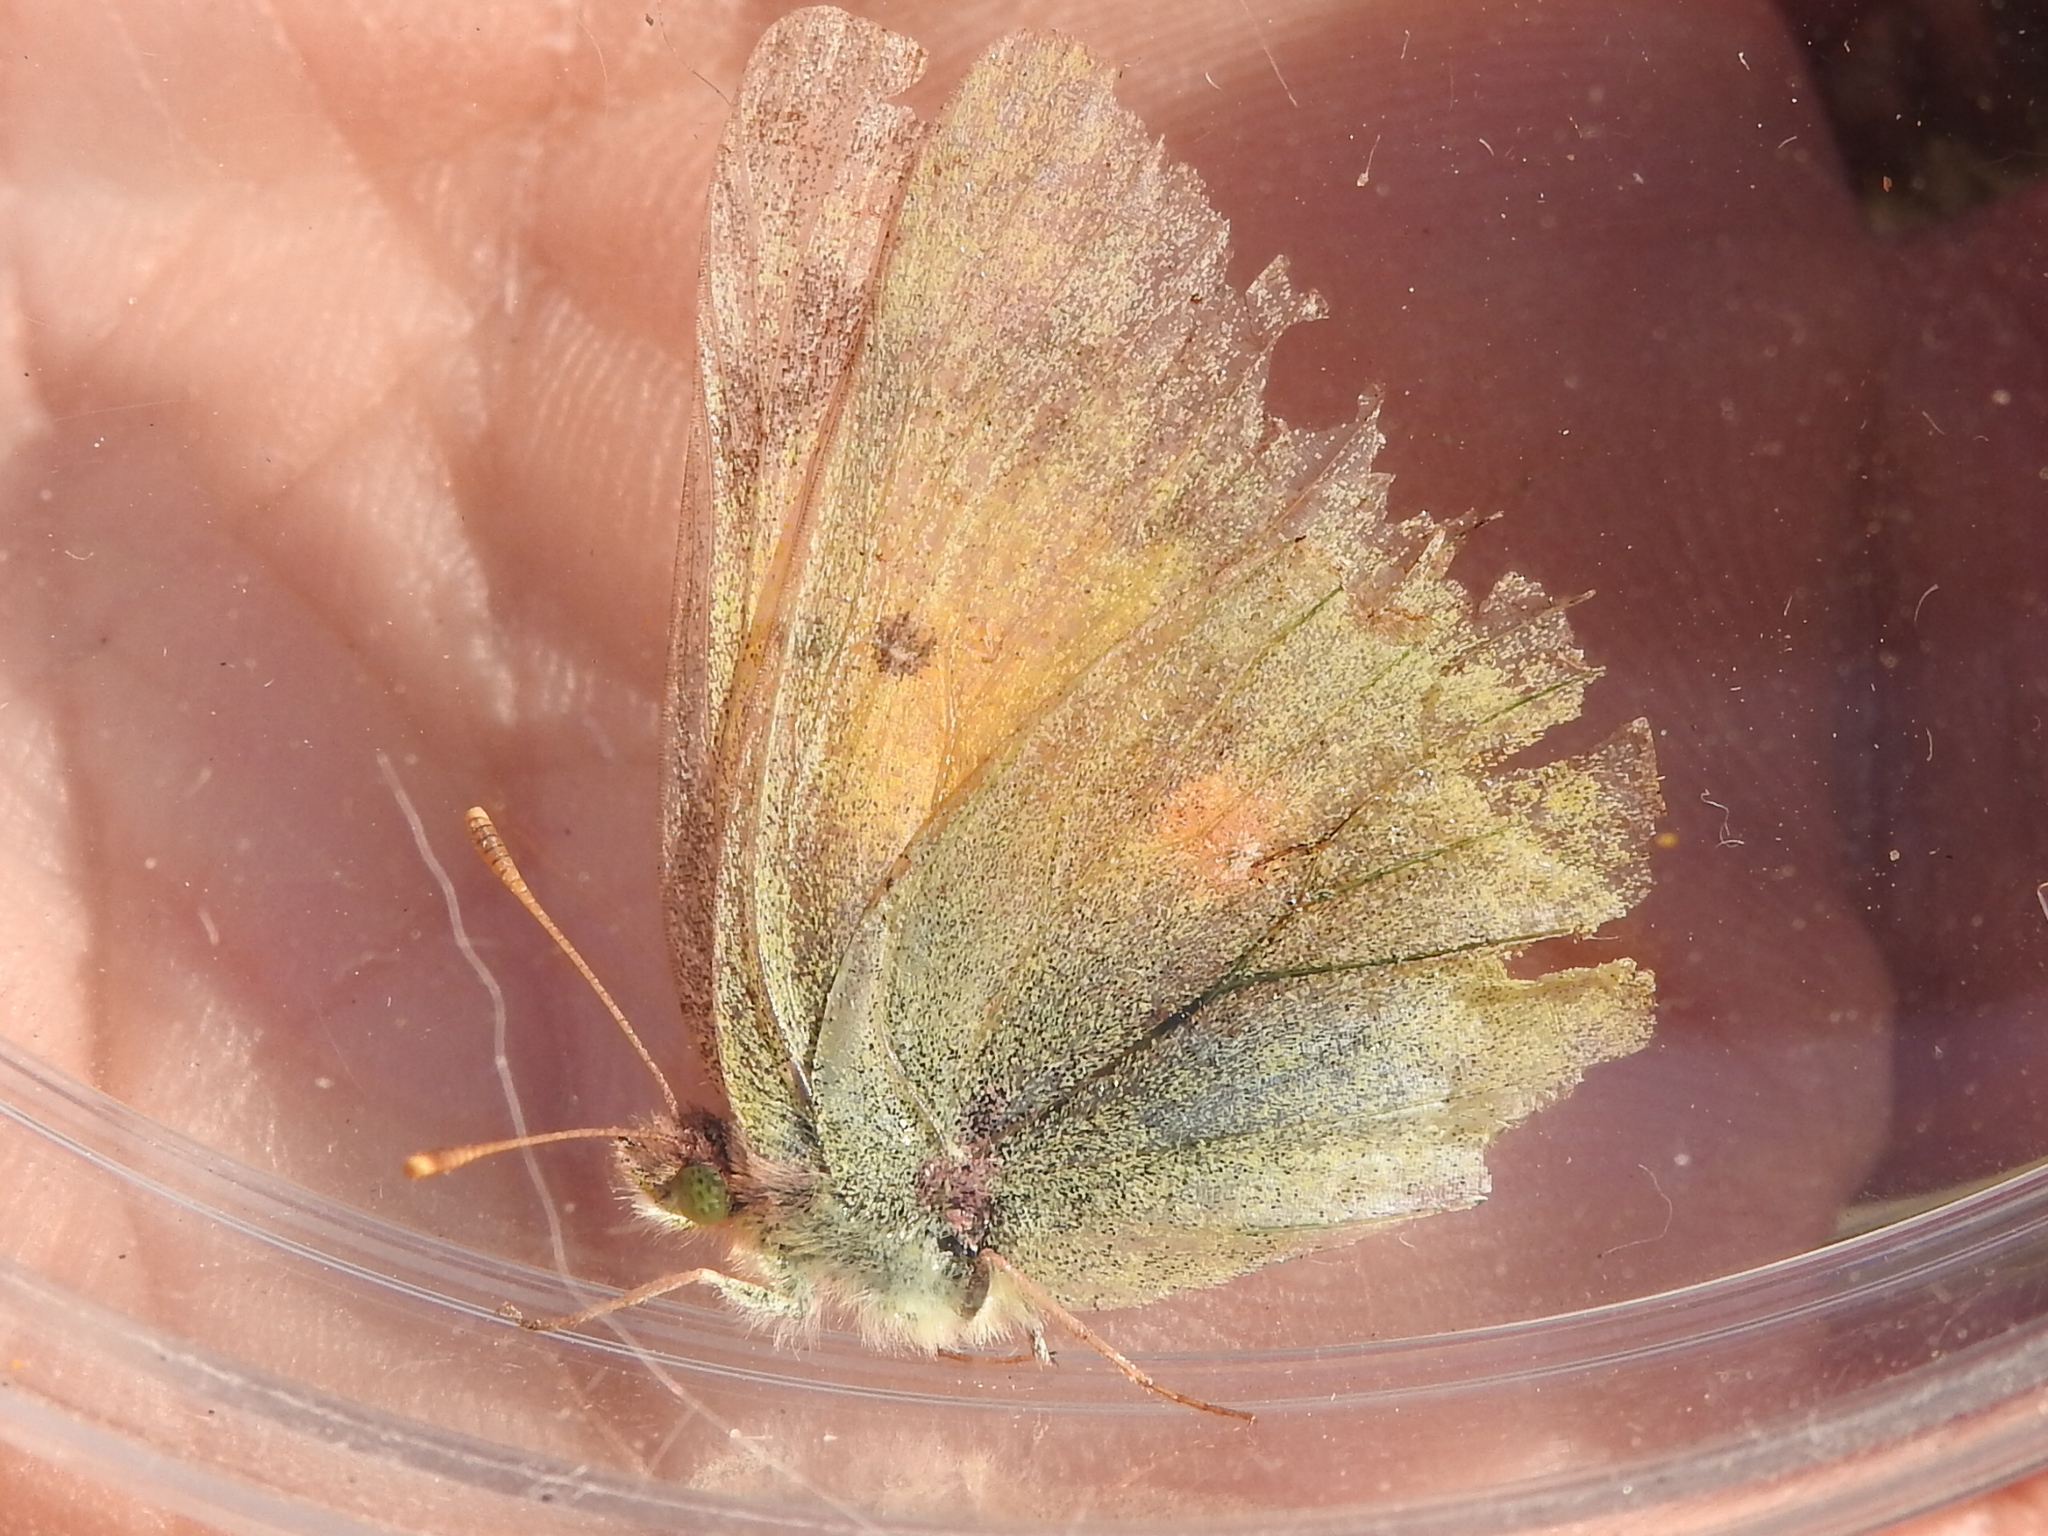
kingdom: Animalia
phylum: Arthropoda
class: Insecta
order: Lepidoptera
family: Pieridae
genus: Colias
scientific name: Colias eurytheme
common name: Alfalfa butterfly
